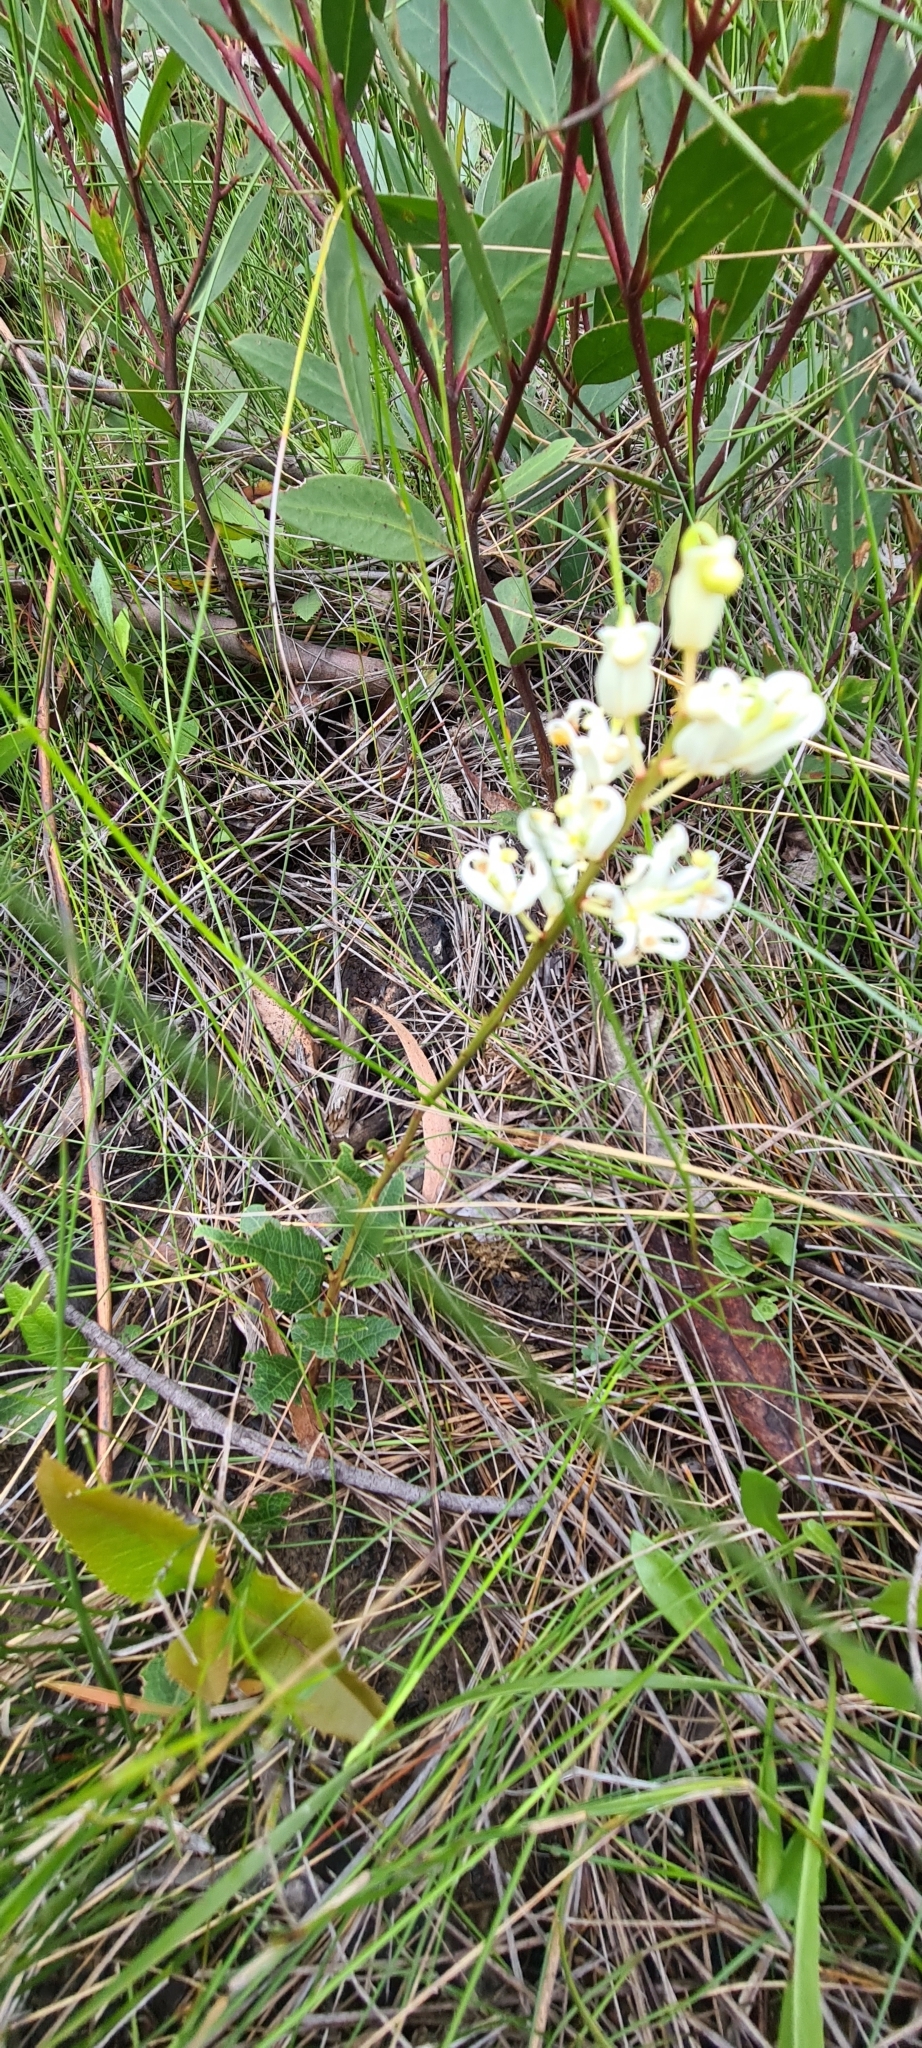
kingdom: Plantae
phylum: Tracheophyta
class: Magnoliopsida
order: Proteales
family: Proteaceae
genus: Lomatia
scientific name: Lomatia ilicifolia
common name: Native-holly
